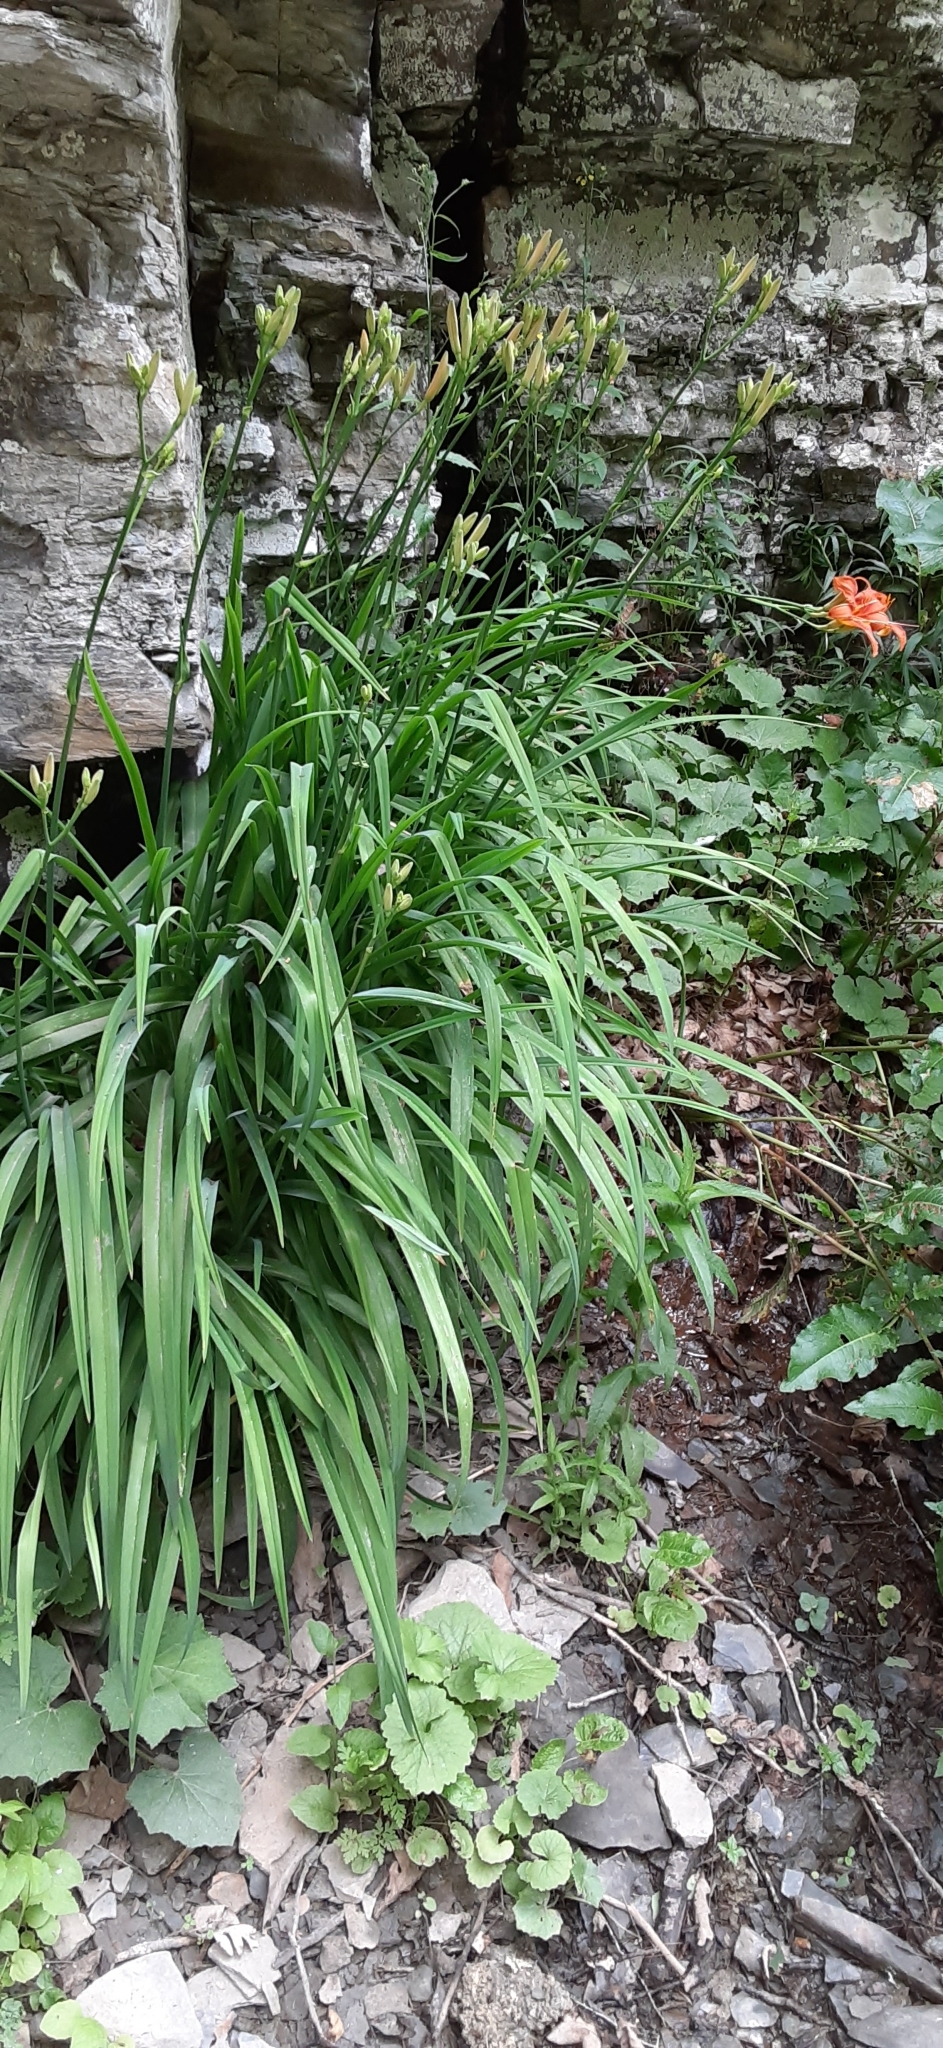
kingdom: Plantae
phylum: Tracheophyta
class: Liliopsida
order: Asparagales
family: Asphodelaceae
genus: Hemerocallis
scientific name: Hemerocallis fulva
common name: Orange day-lily
